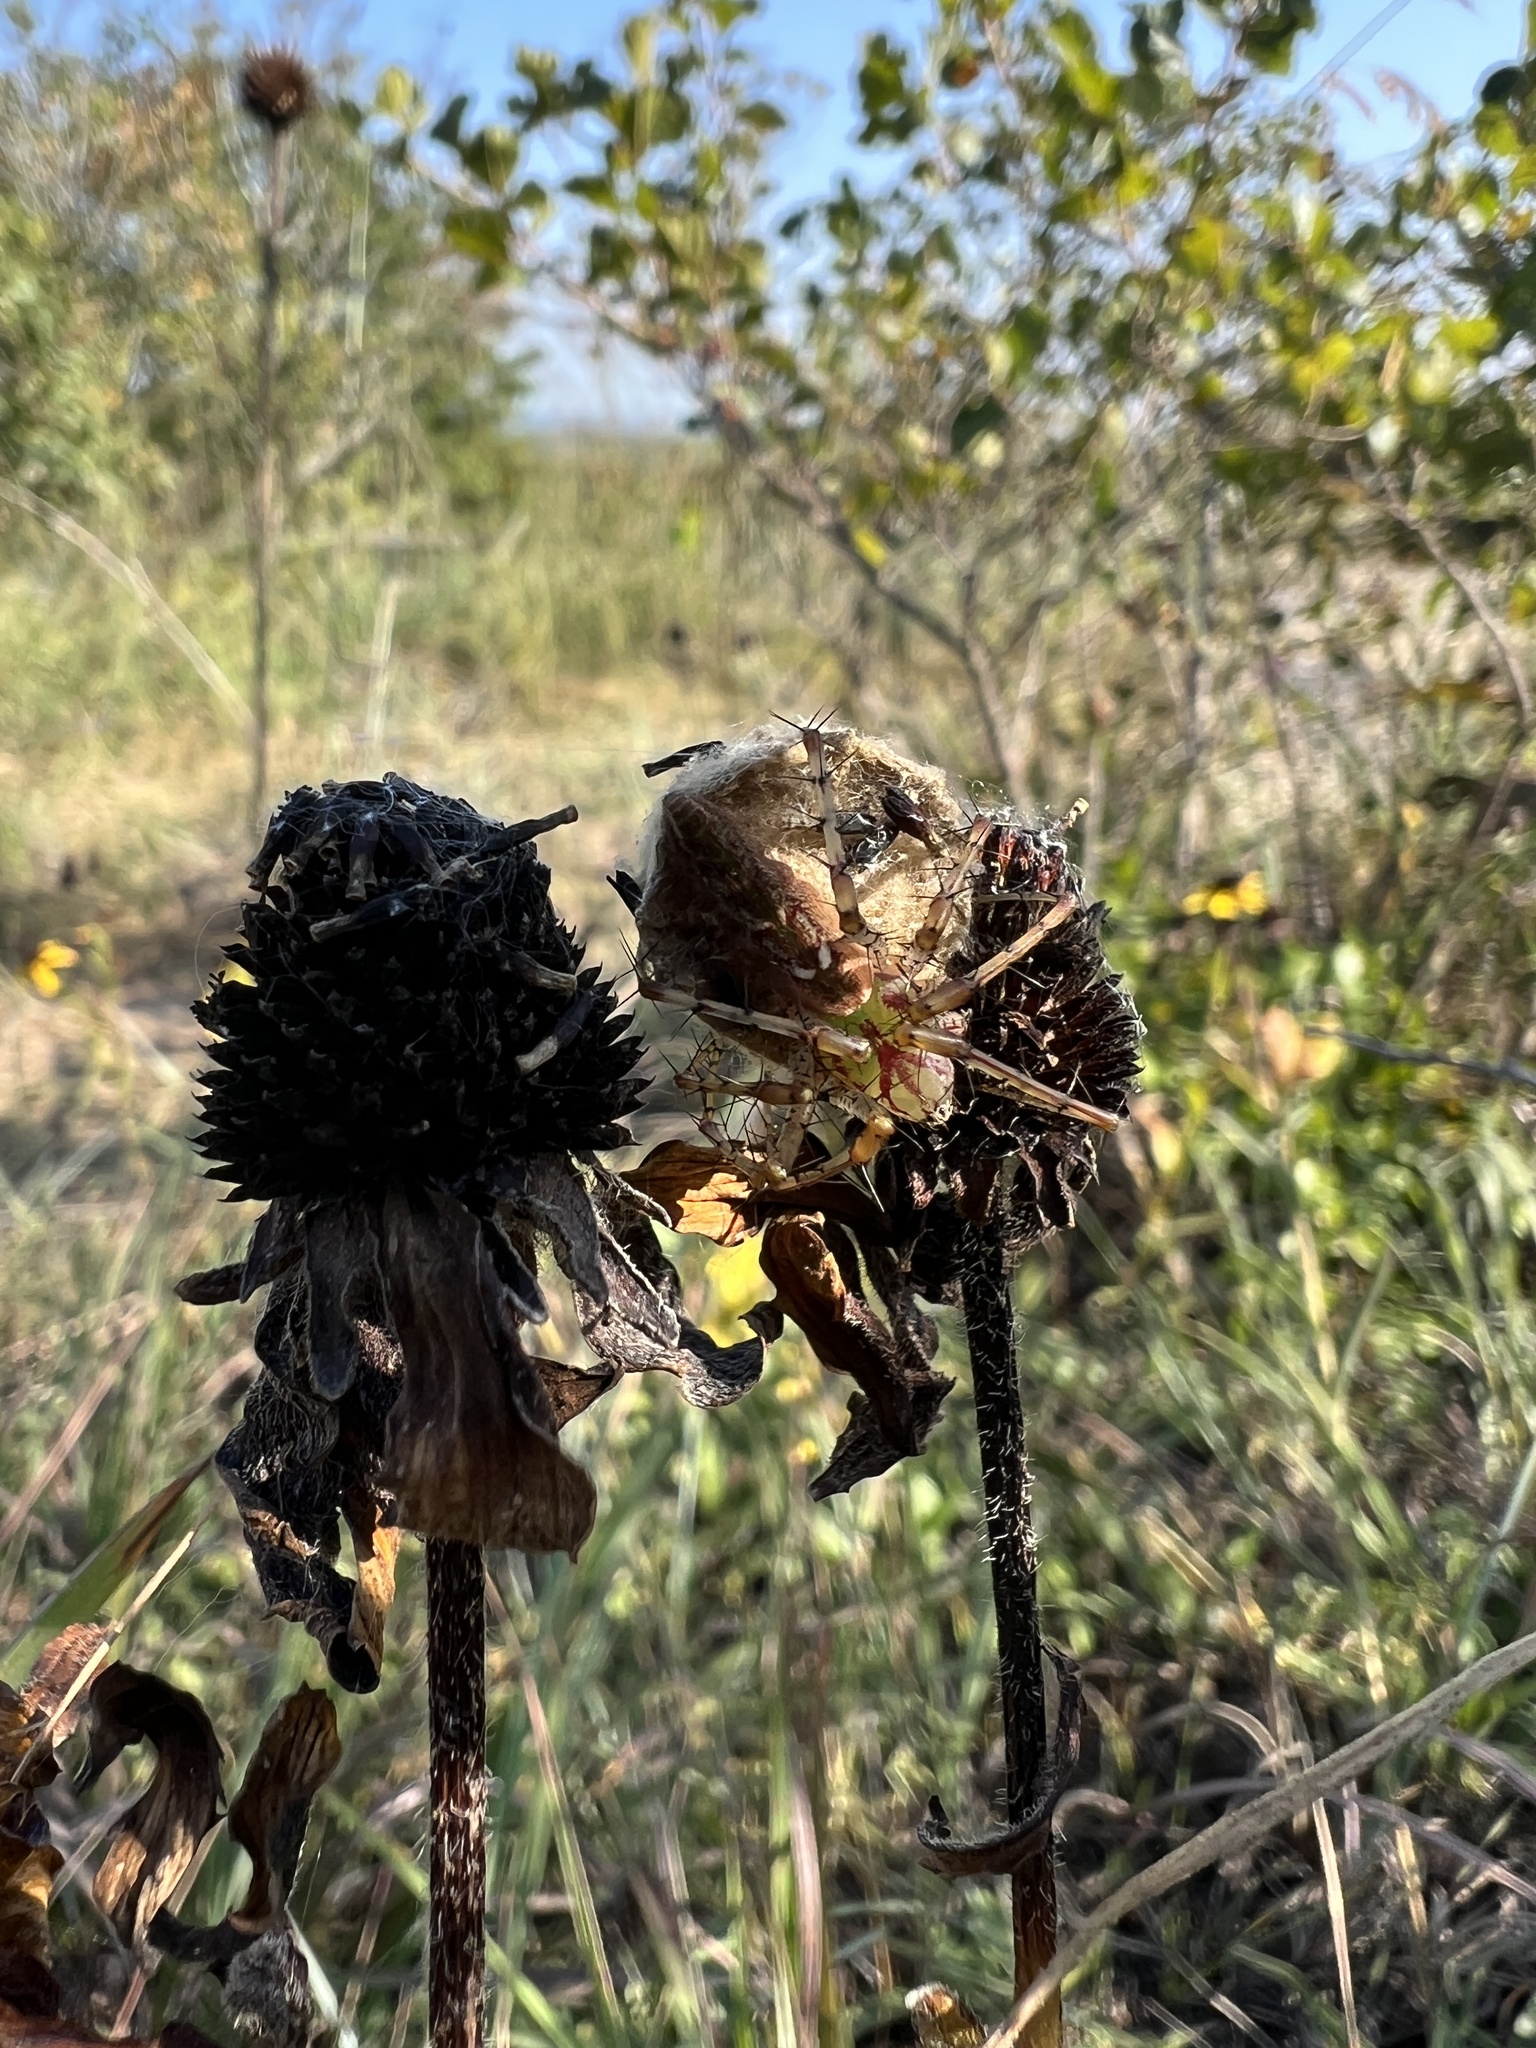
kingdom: Animalia
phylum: Arthropoda
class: Arachnida
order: Araneae
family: Oxyopidae
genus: Peucetia
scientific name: Peucetia viridans
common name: Lynx spiders
